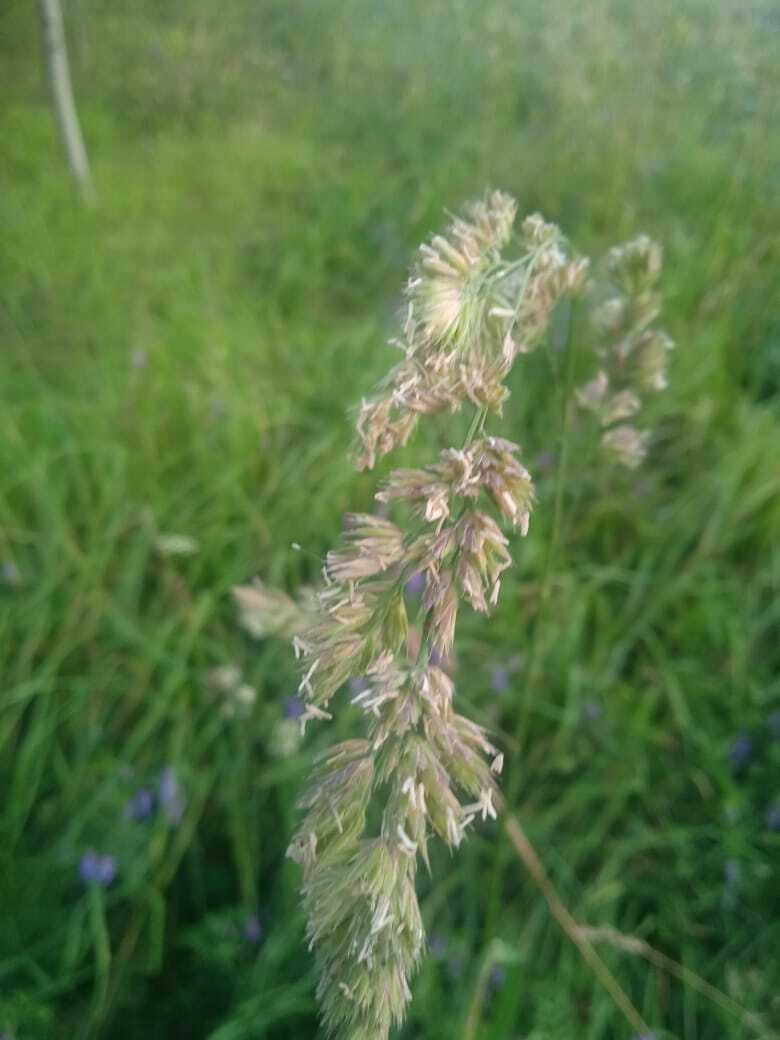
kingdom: Plantae
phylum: Tracheophyta
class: Liliopsida
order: Poales
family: Poaceae
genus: Dactylis
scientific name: Dactylis glomerata
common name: Orchardgrass
